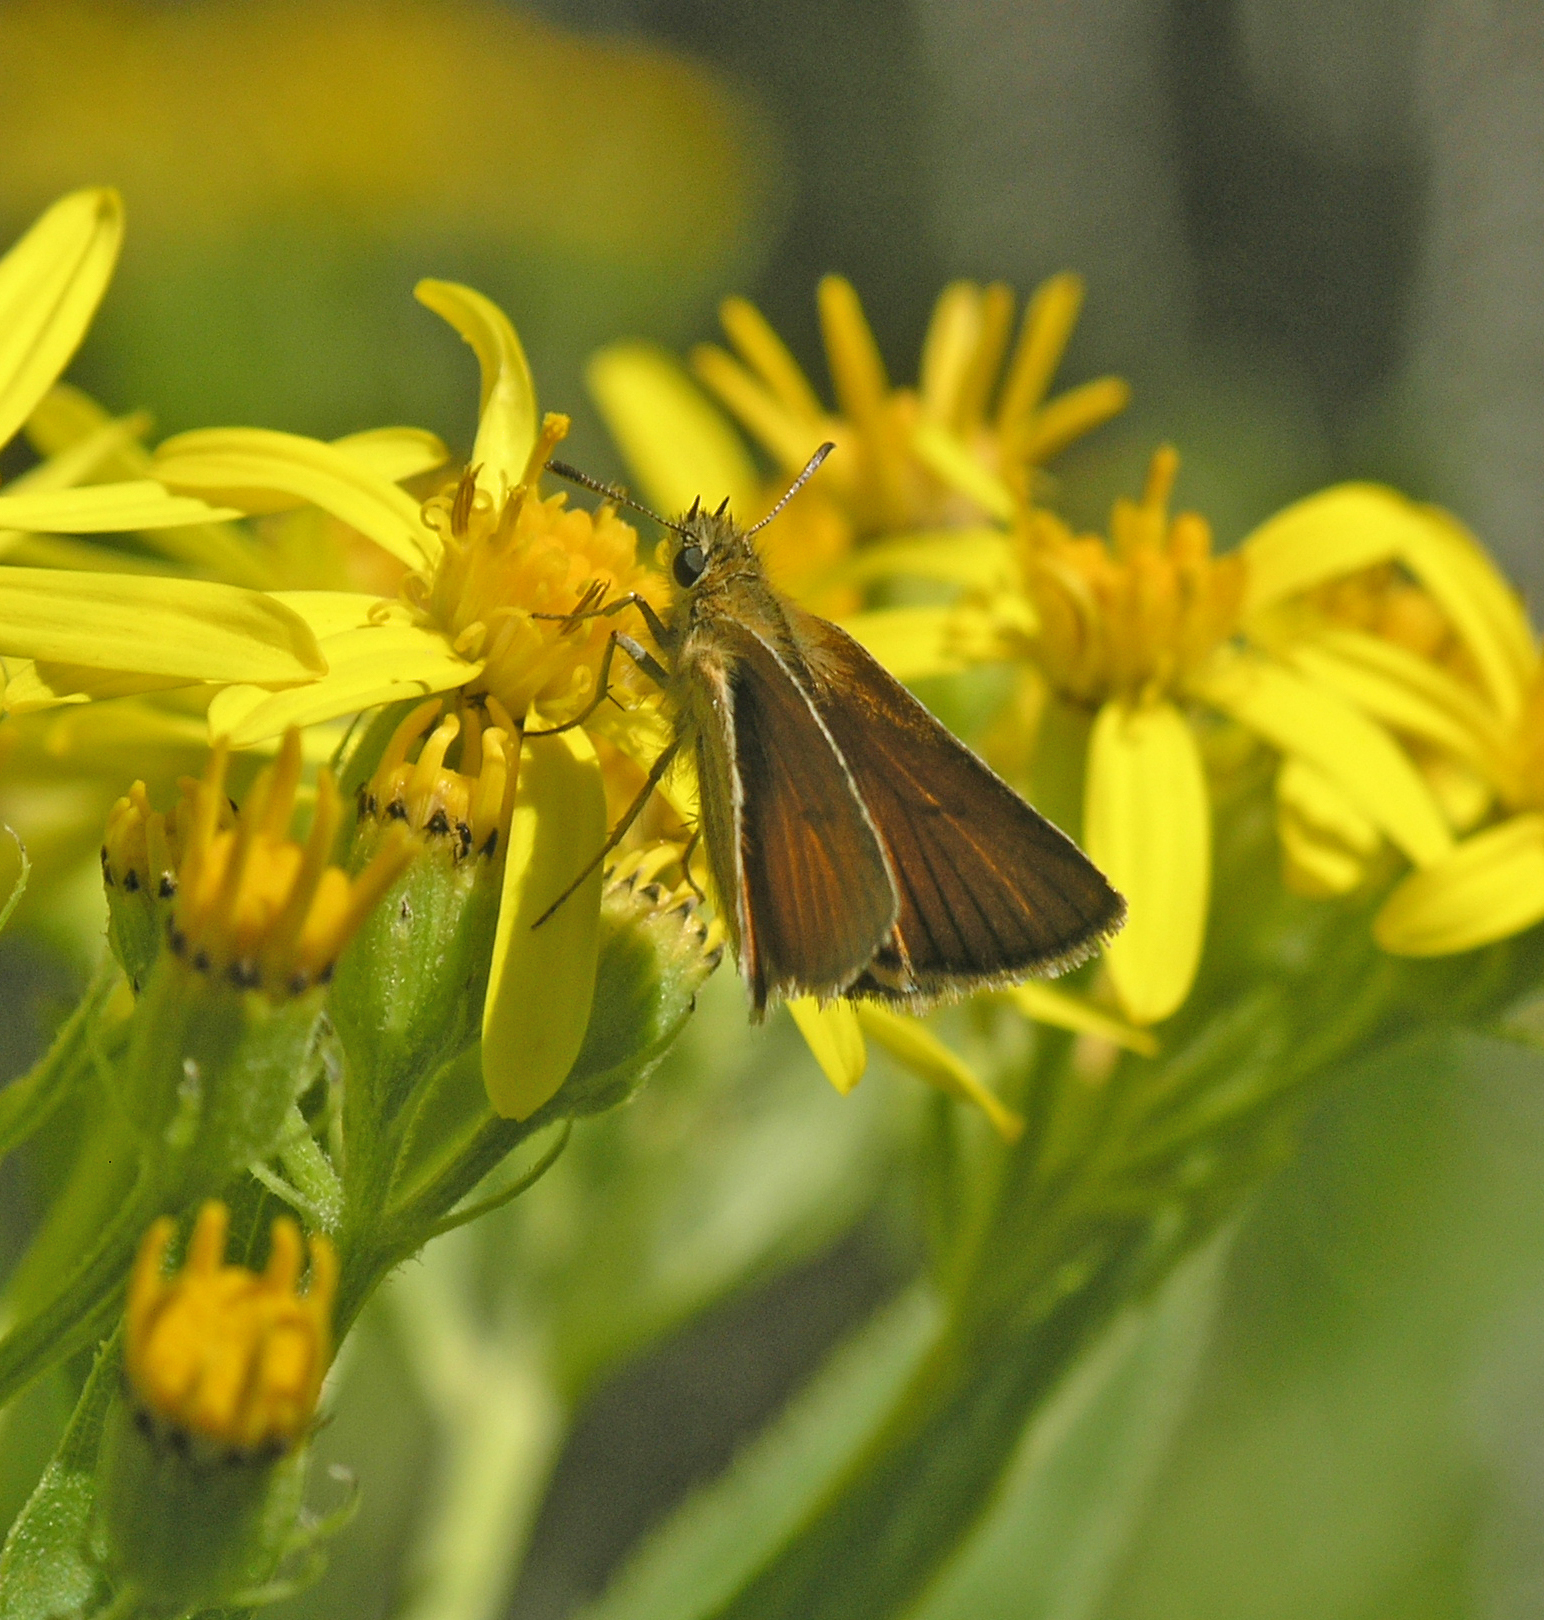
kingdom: Animalia
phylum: Arthropoda
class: Insecta
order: Lepidoptera
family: Hesperiidae
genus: Thymelicus
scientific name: Thymelicus lineola
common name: Essex skipper
